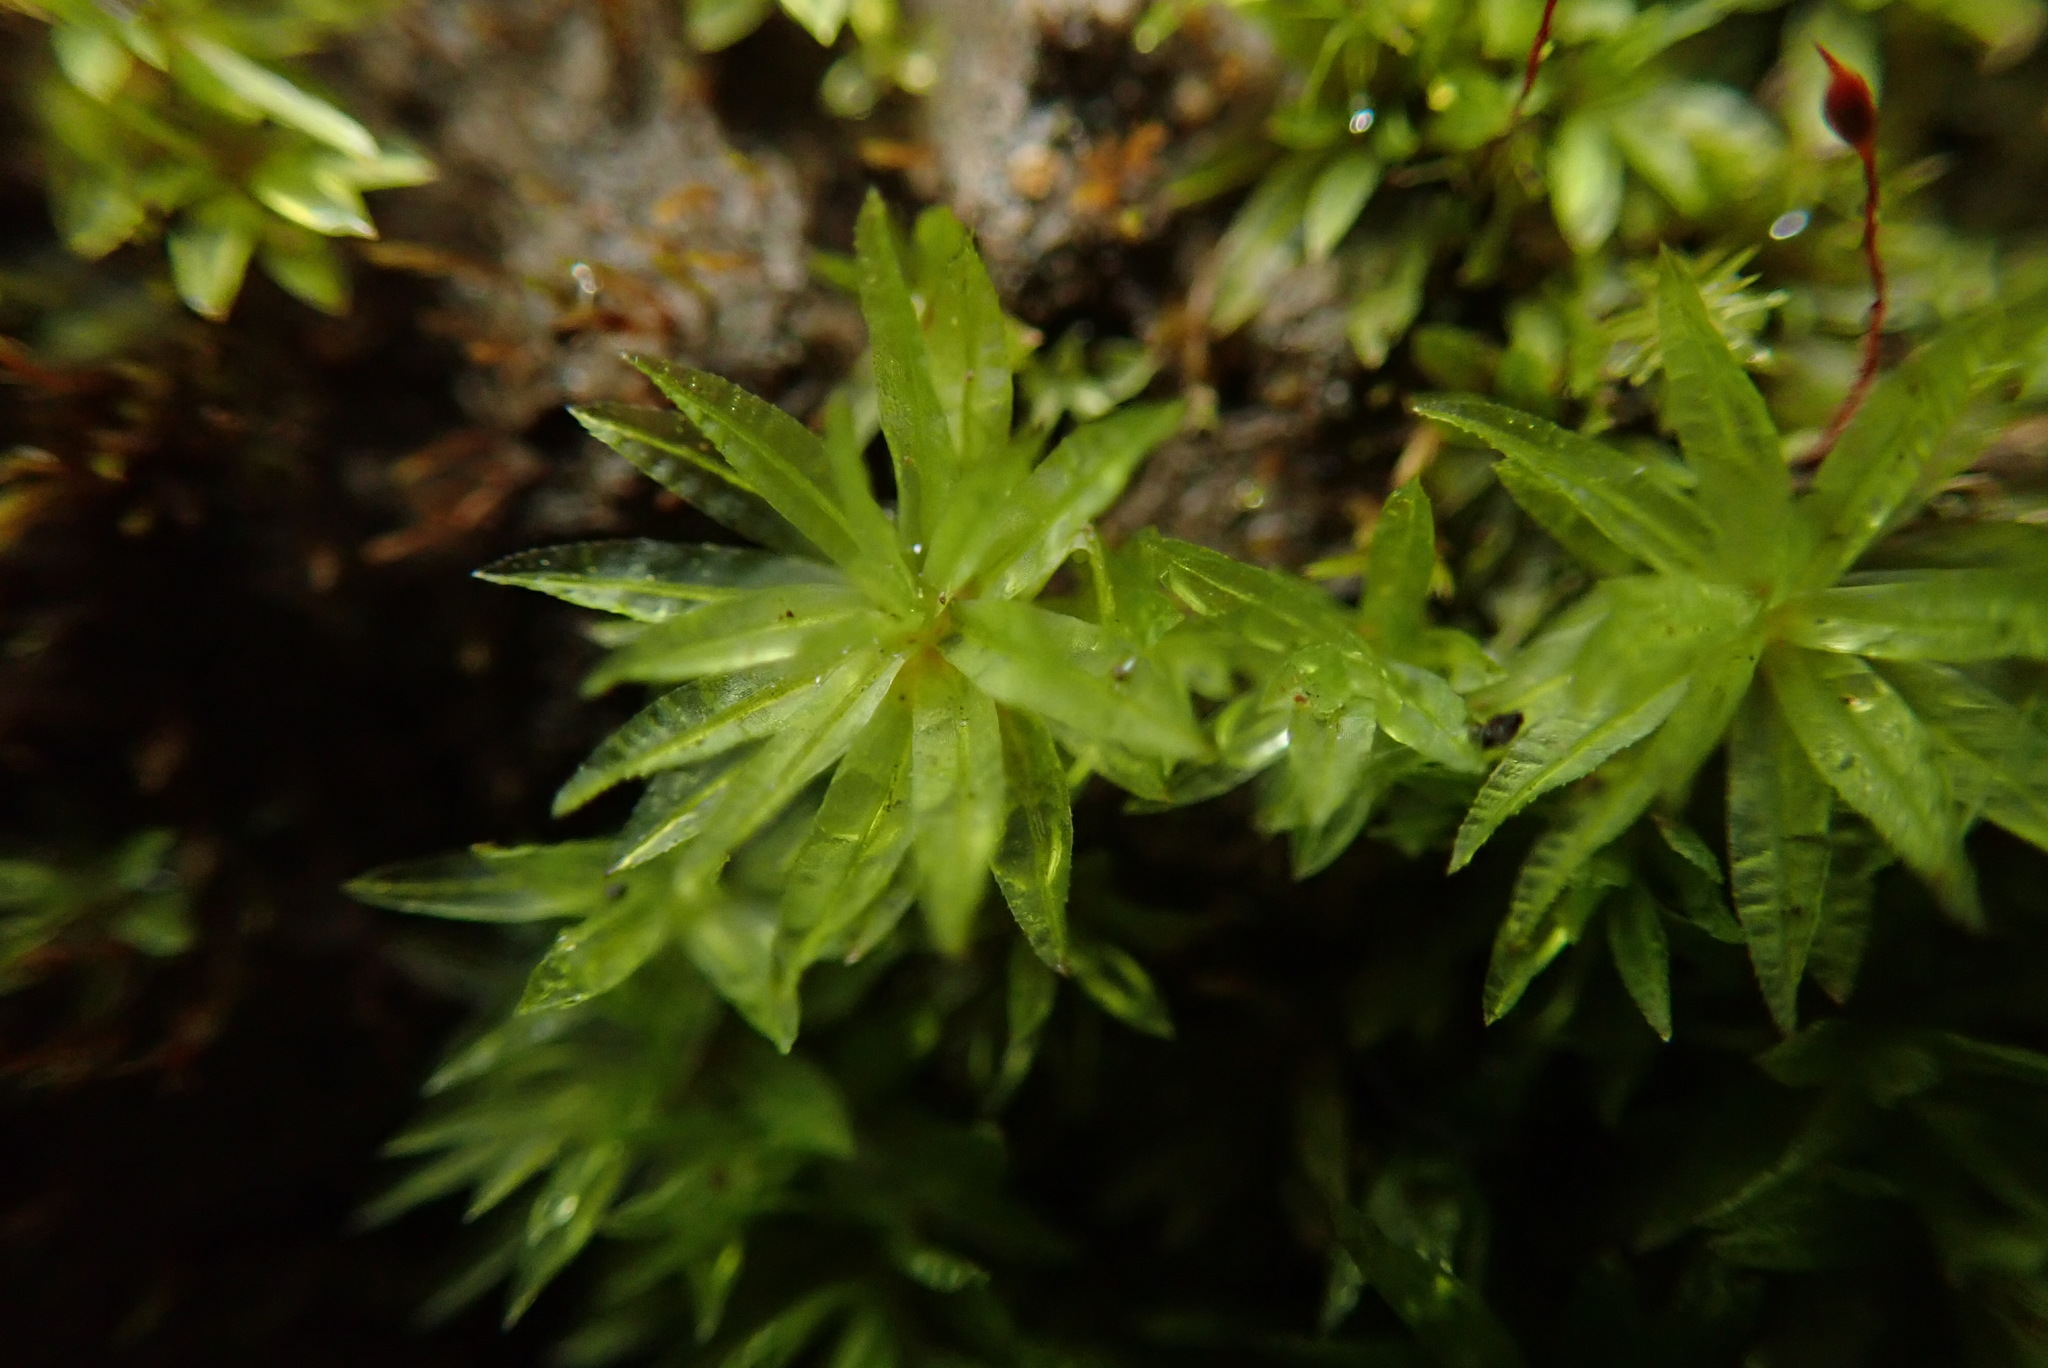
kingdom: Plantae
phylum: Bryophyta
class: Polytrichopsida
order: Polytrichales
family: Polytrichaceae
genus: Atrichum
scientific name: Atrichum selwynii
